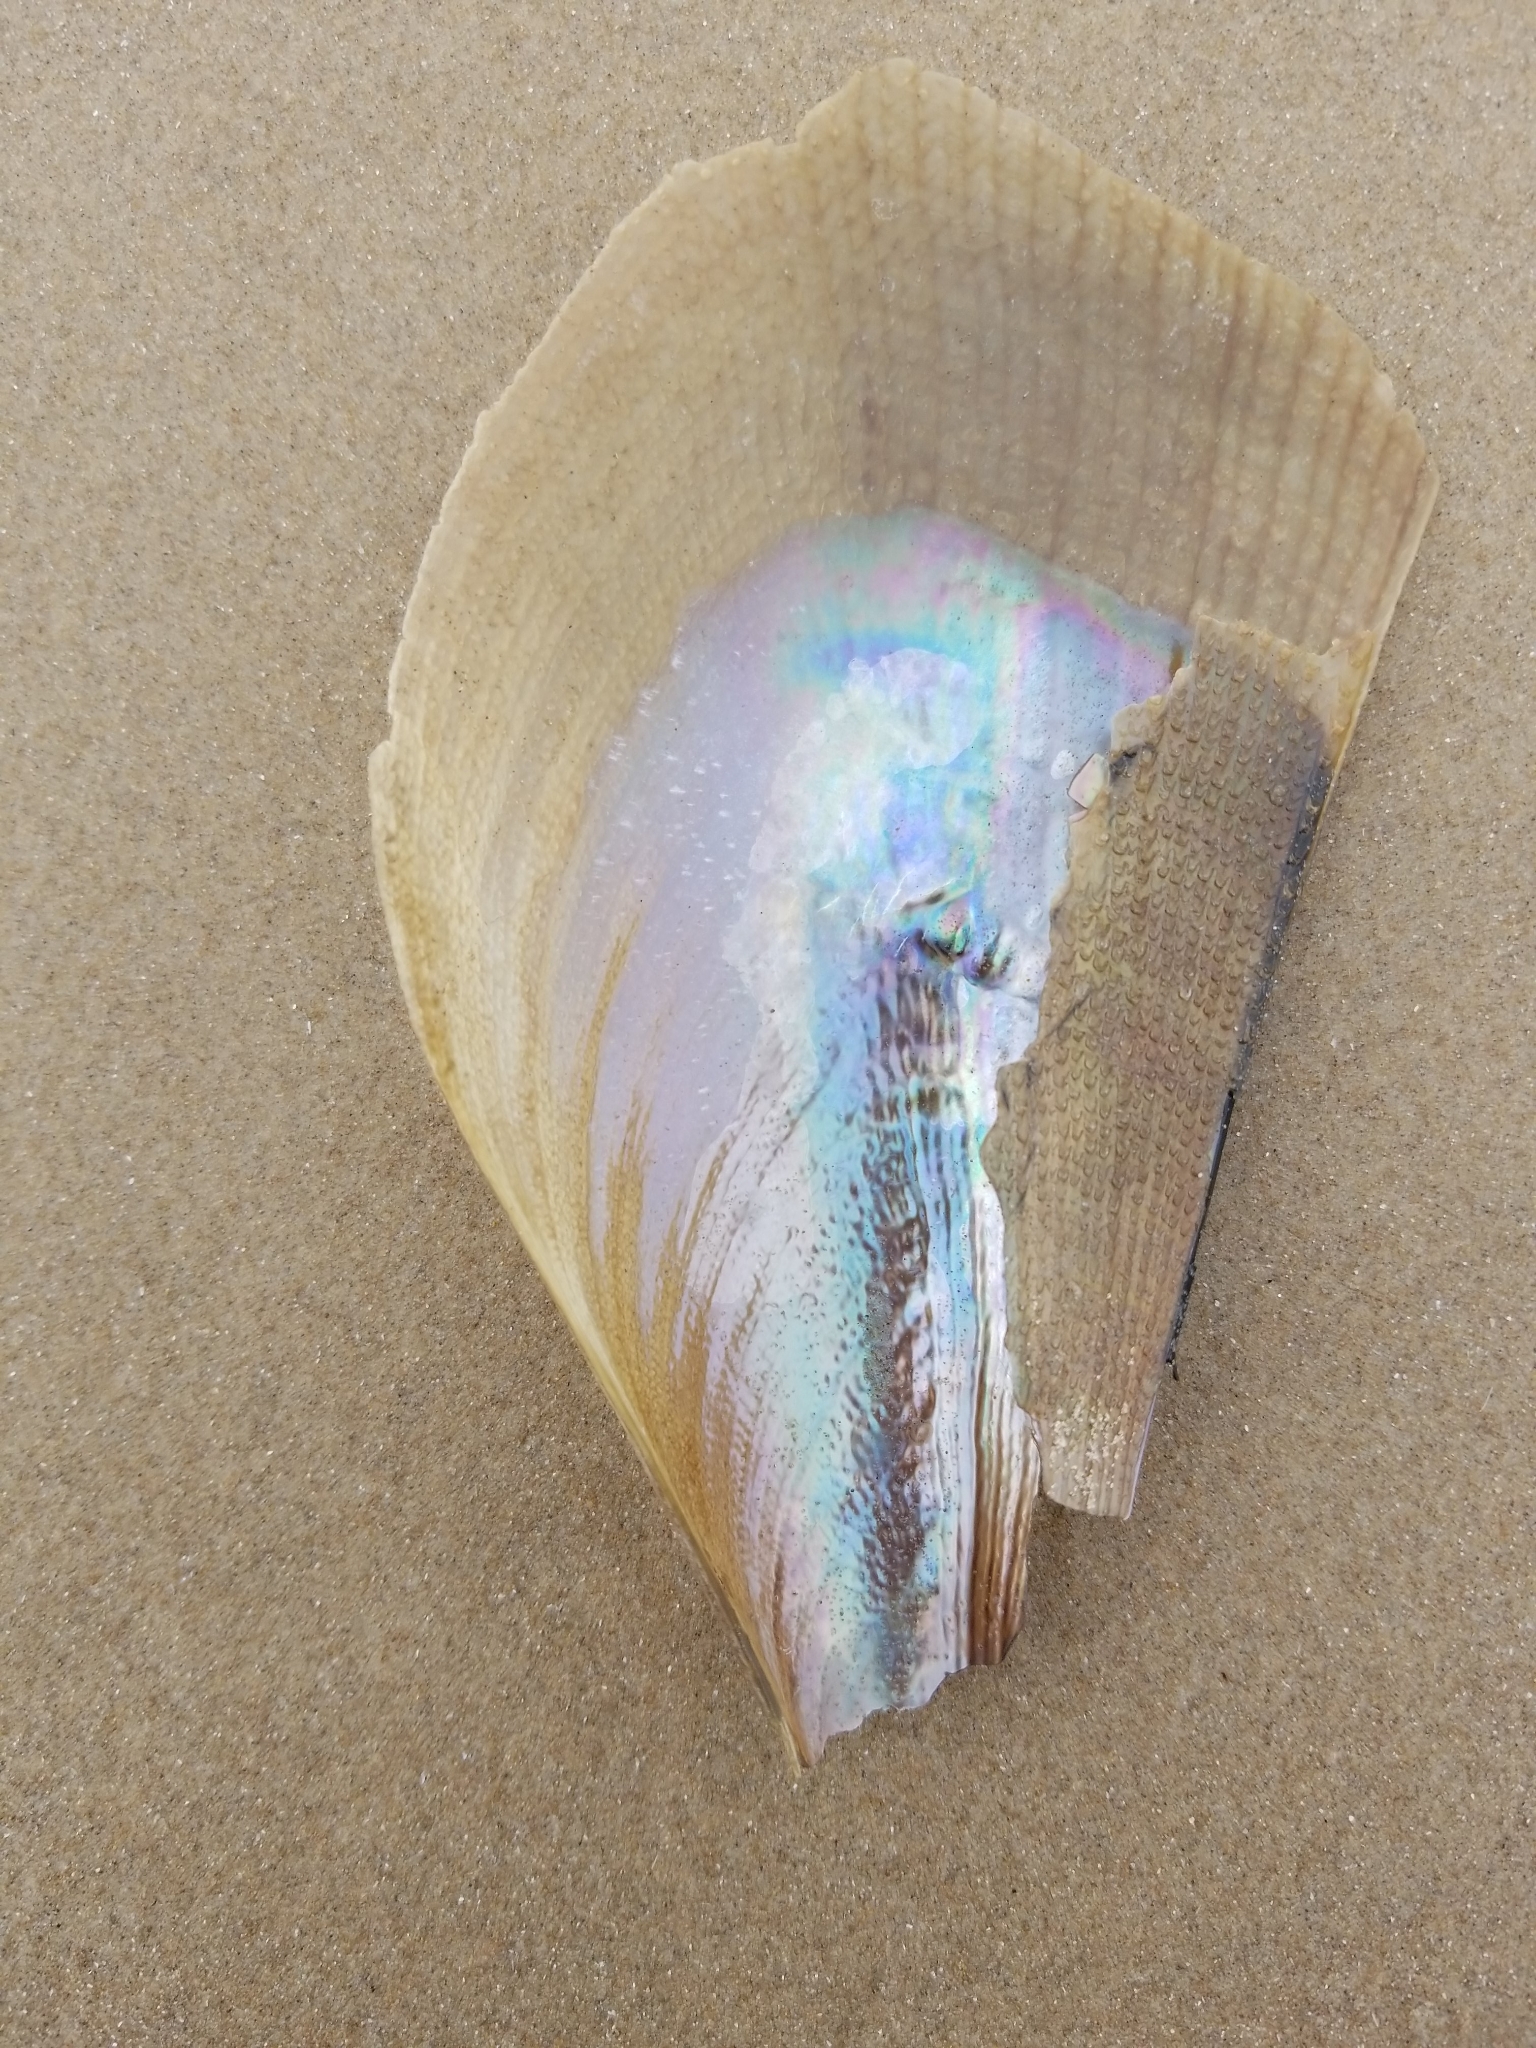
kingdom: Animalia
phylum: Mollusca
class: Bivalvia
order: Ostreida
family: Pinnidae
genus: Atrina
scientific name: Atrina serrata
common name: Saw-toothed penshell
